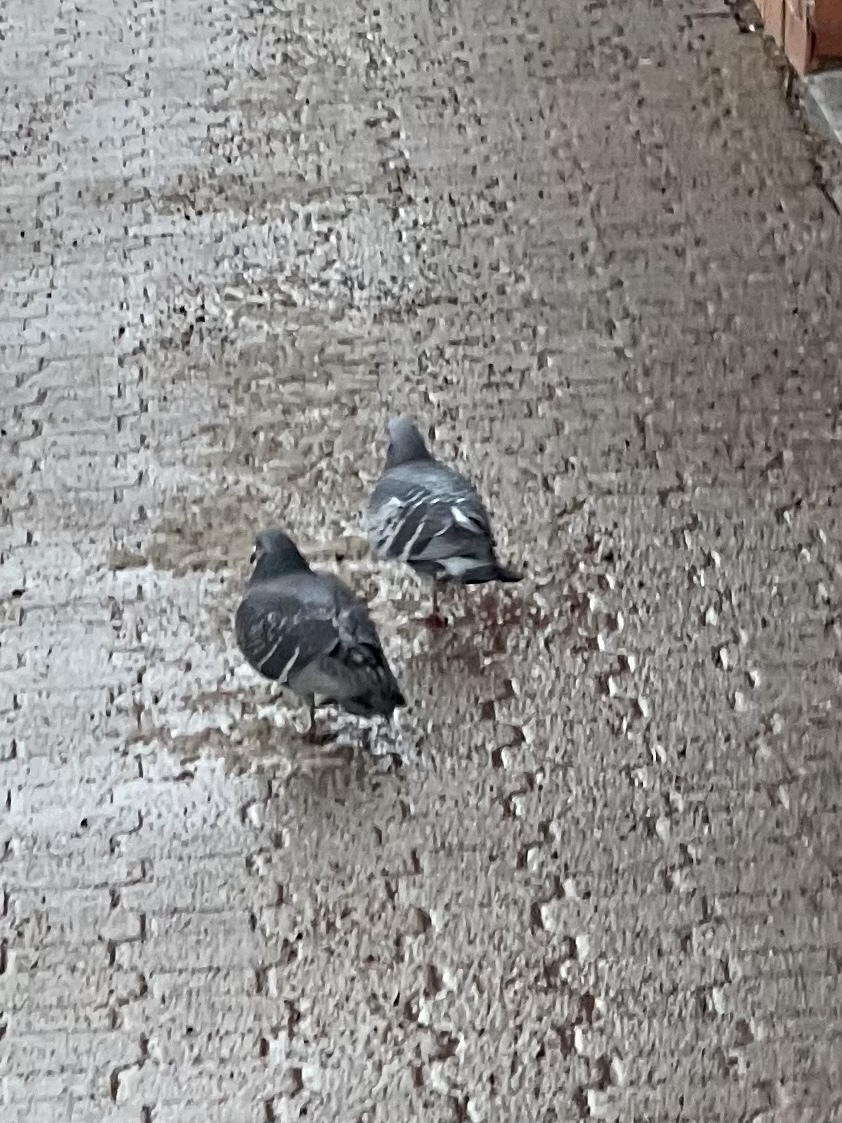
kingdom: Animalia
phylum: Chordata
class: Aves
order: Columbiformes
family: Columbidae
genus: Columba
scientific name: Columba livia
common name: Rock pigeon
